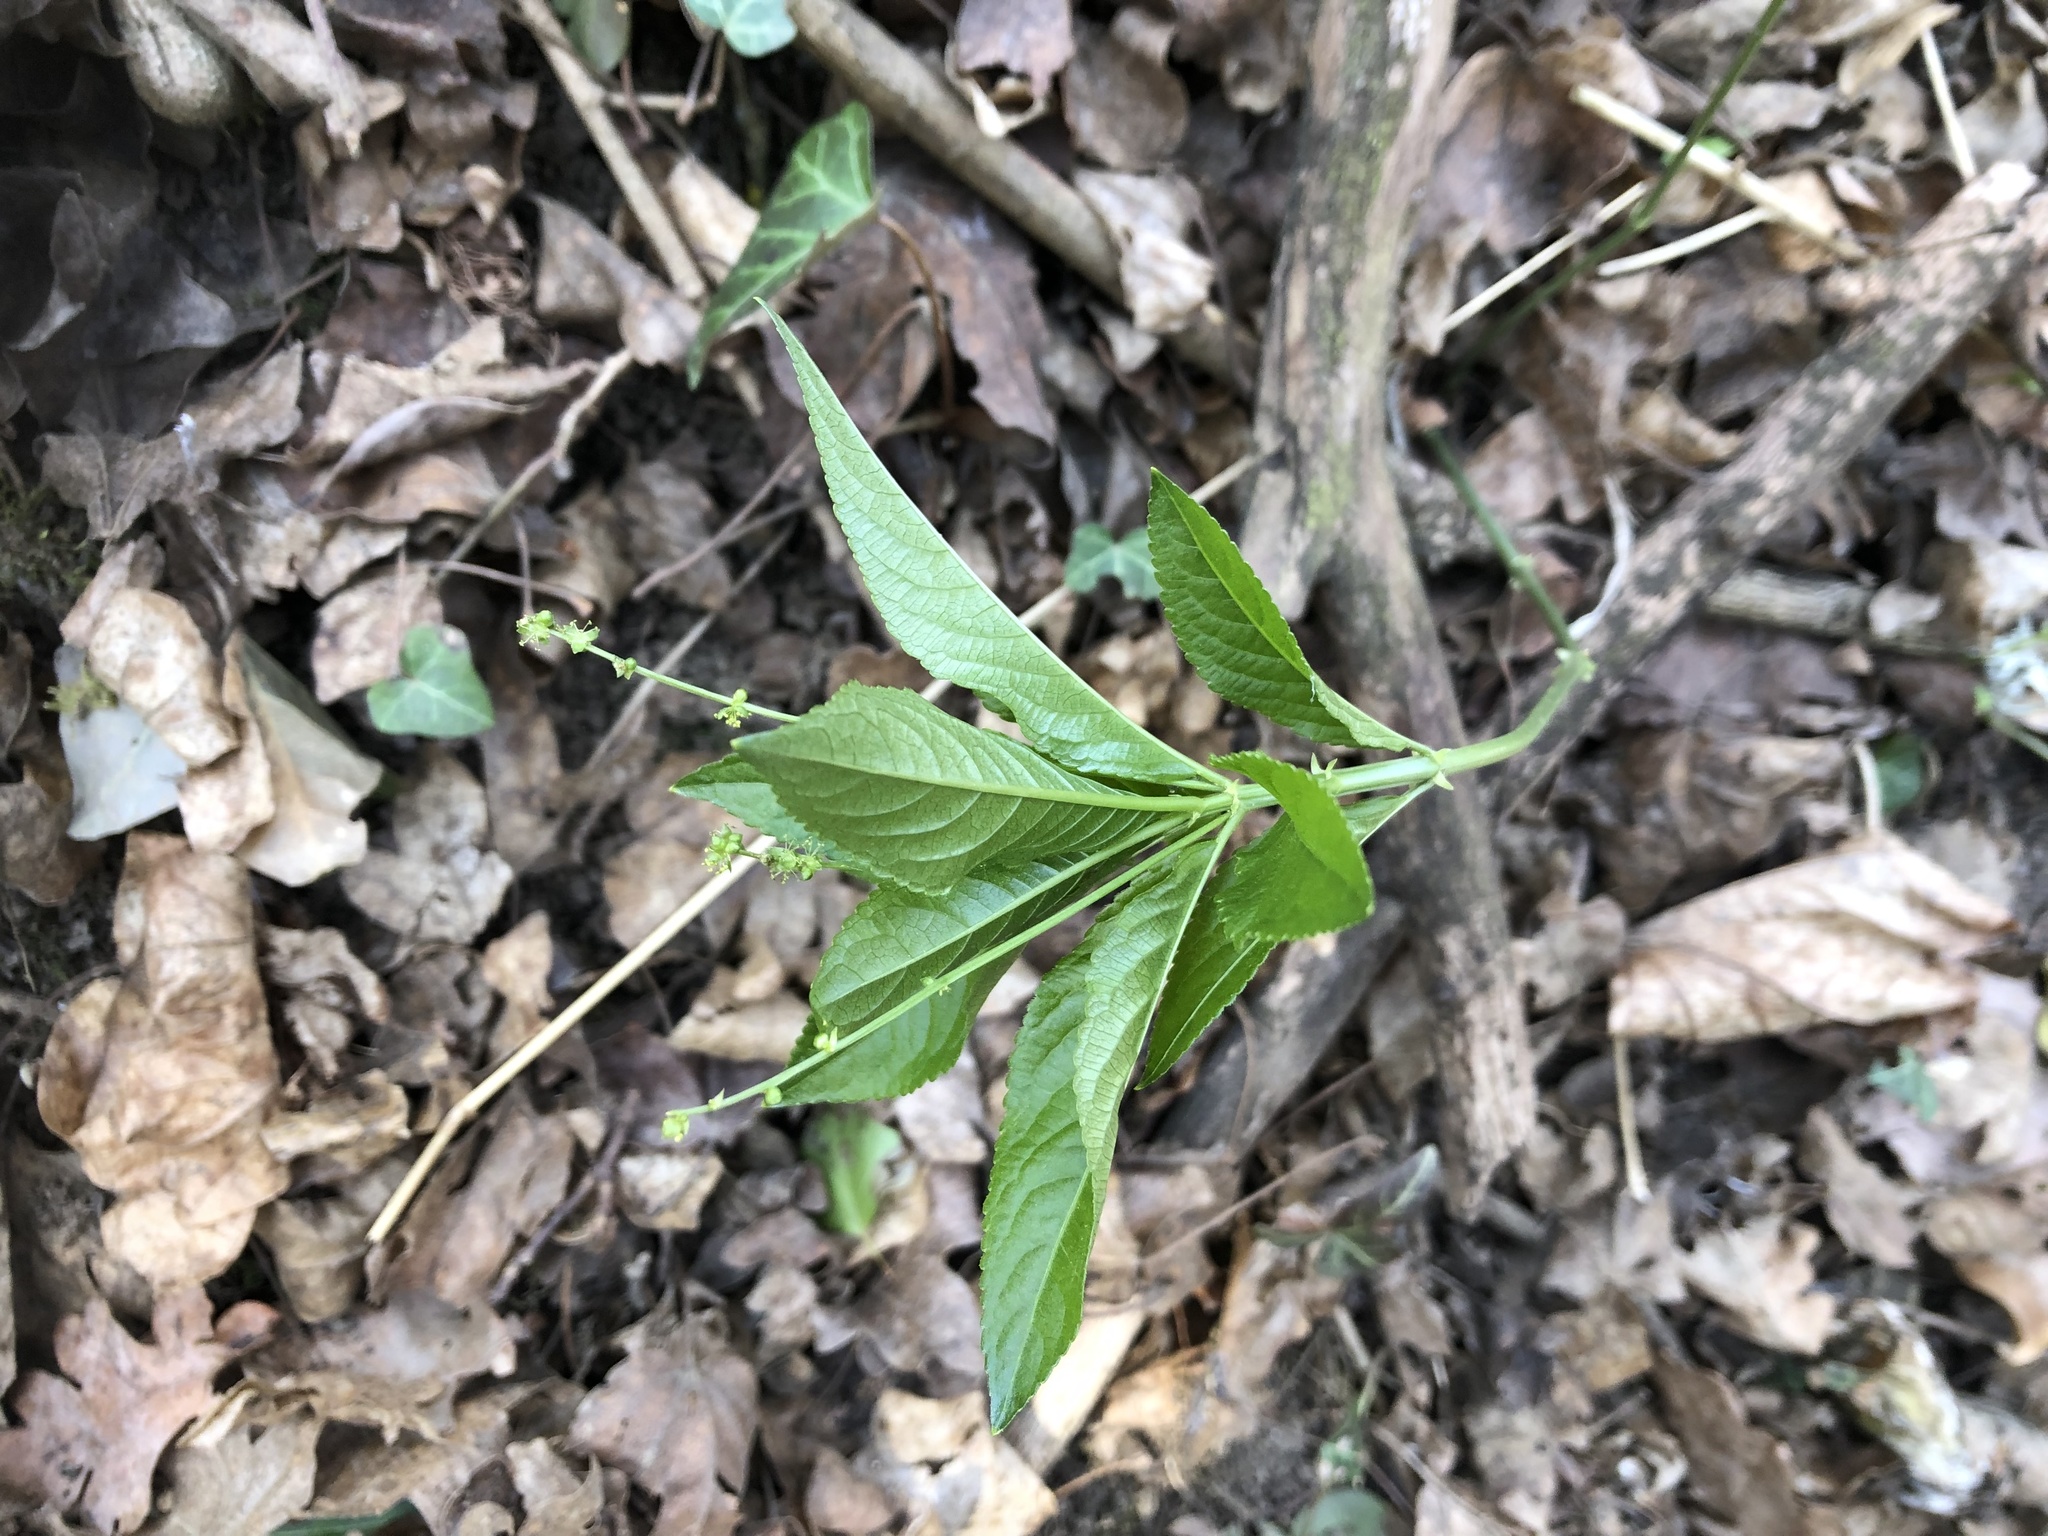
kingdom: Plantae
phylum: Tracheophyta
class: Magnoliopsida
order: Malpighiales
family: Euphorbiaceae
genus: Mercurialis
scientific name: Mercurialis perennis
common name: Dog mercury
